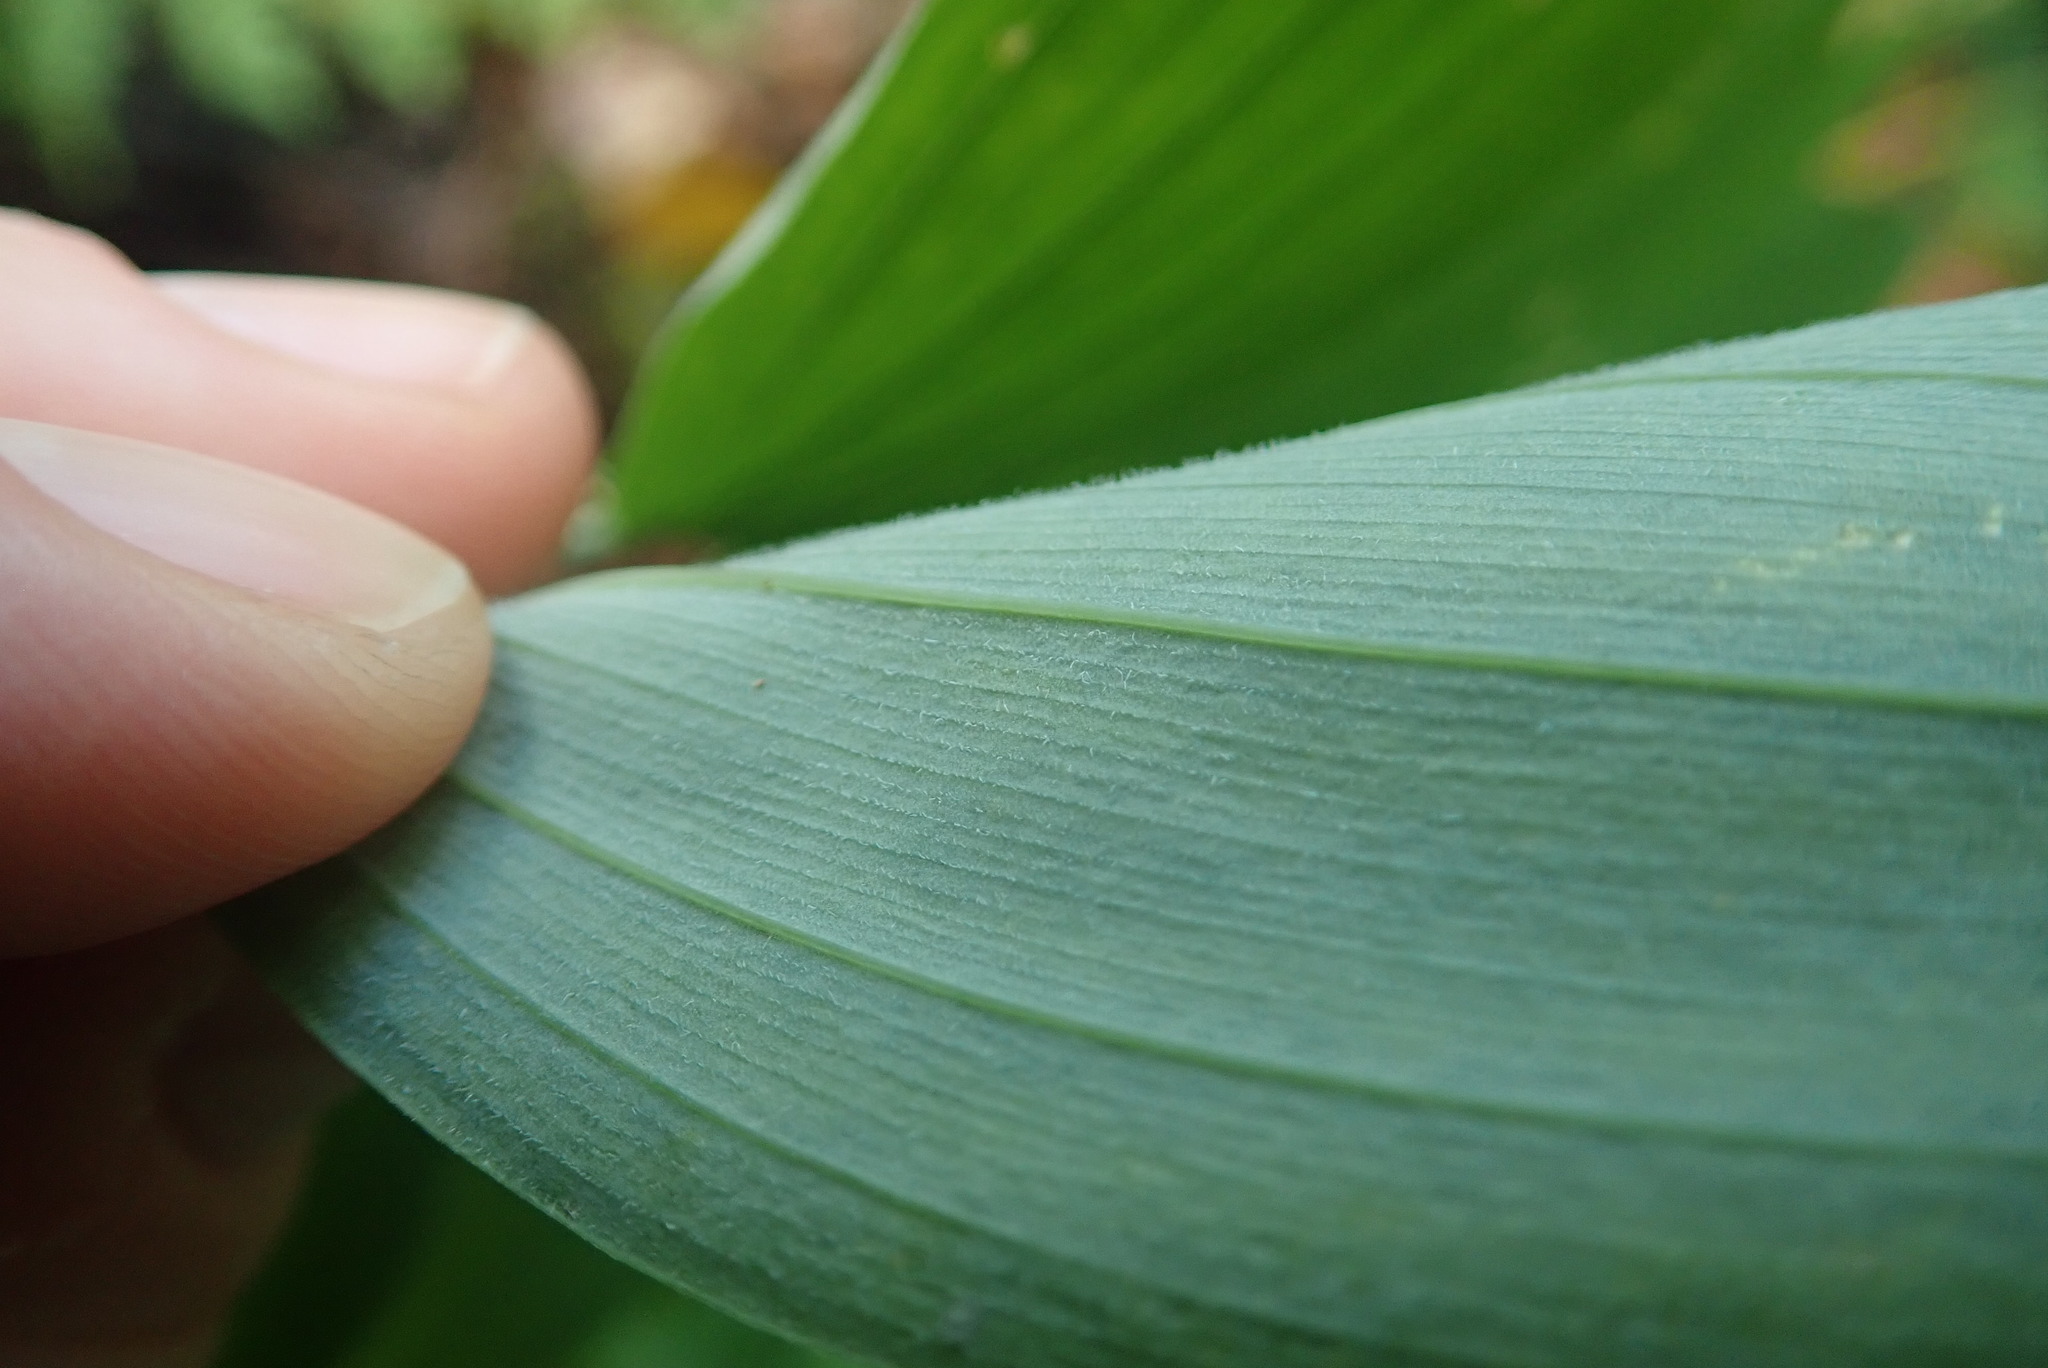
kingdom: Plantae
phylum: Tracheophyta
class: Liliopsida
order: Asparagales
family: Asparagaceae
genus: Polygonatum
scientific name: Polygonatum pubescens
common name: Downy solomon's seal
